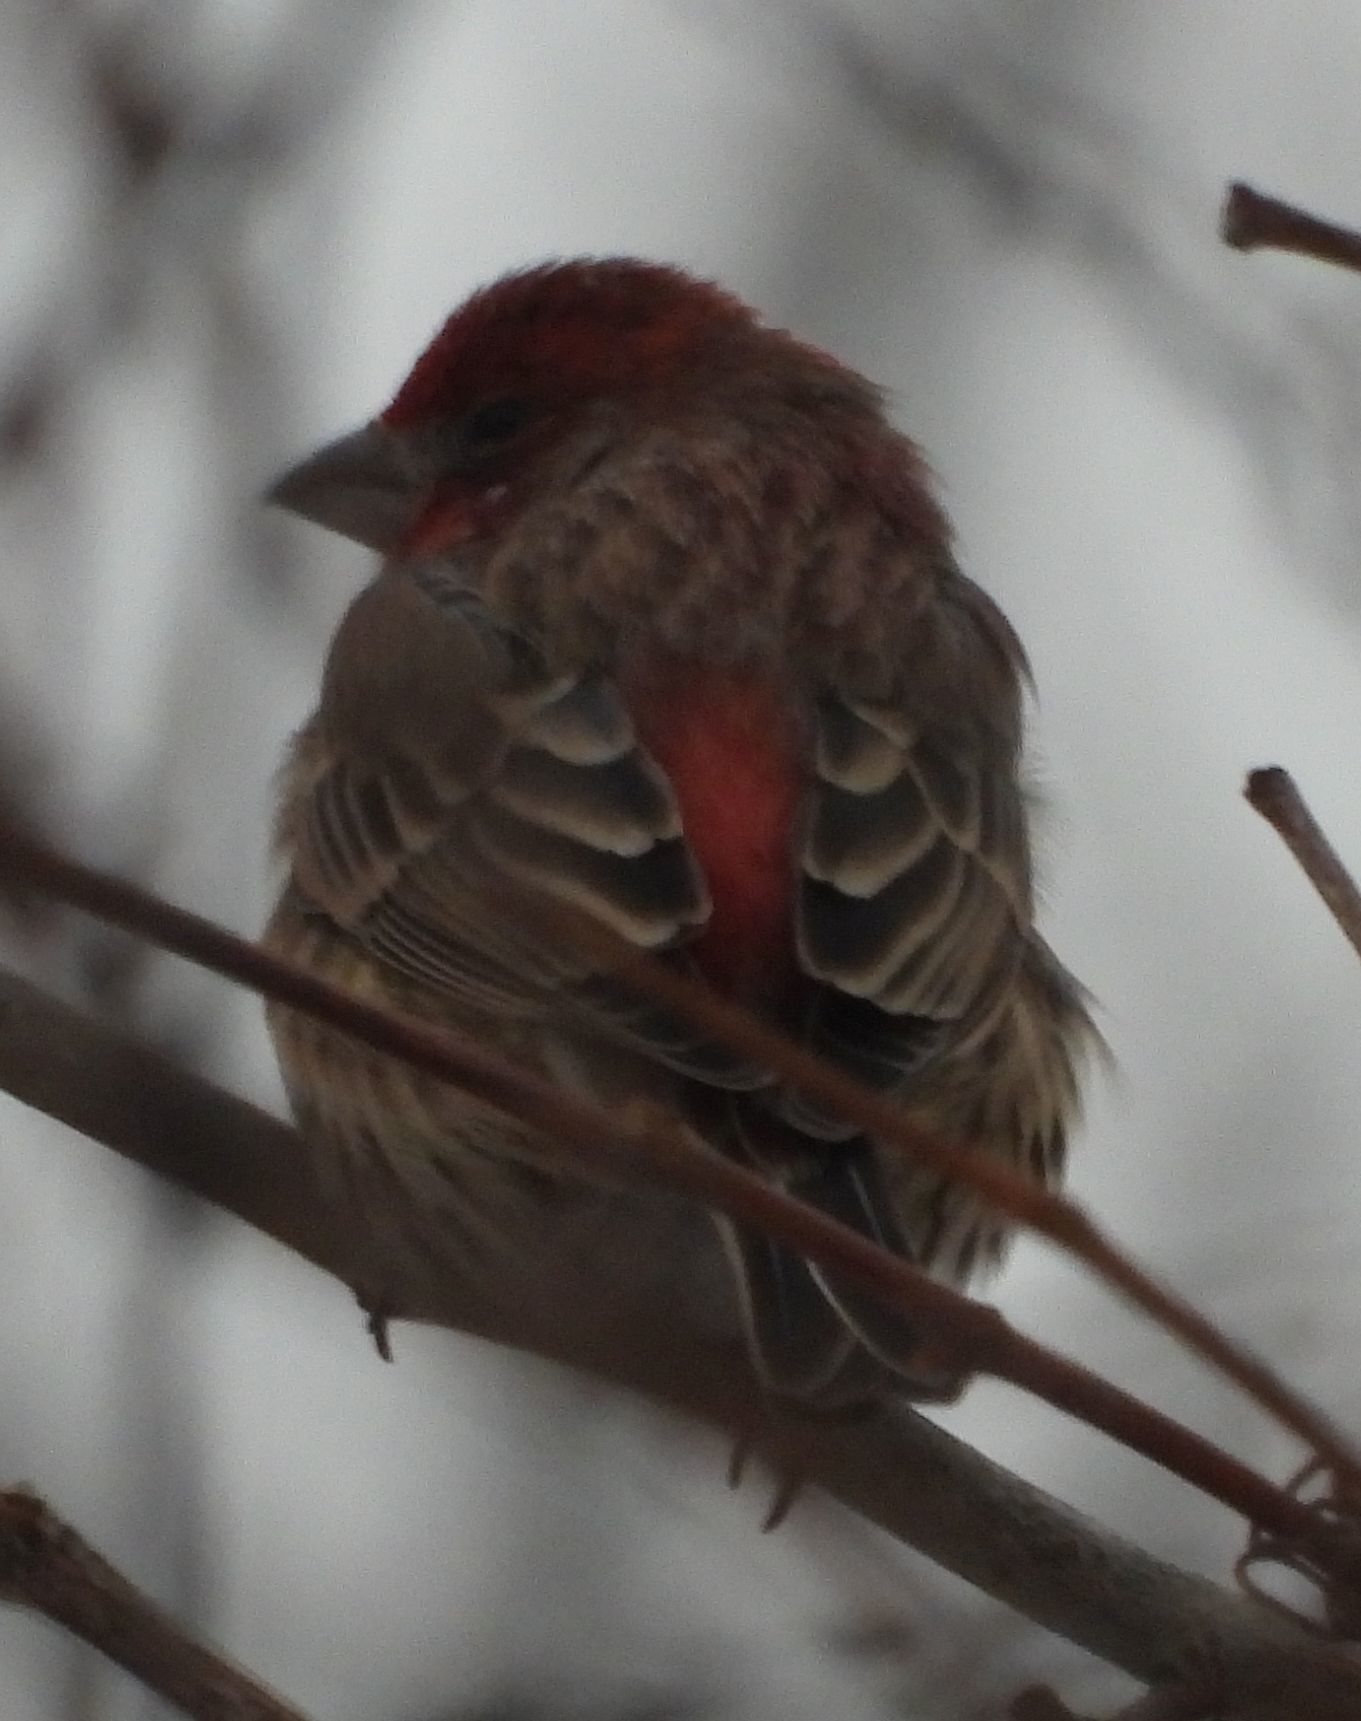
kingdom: Animalia
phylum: Chordata
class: Aves
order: Passeriformes
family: Fringillidae
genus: Haemorhous
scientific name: Haemorhous mexicanus
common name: House finch
